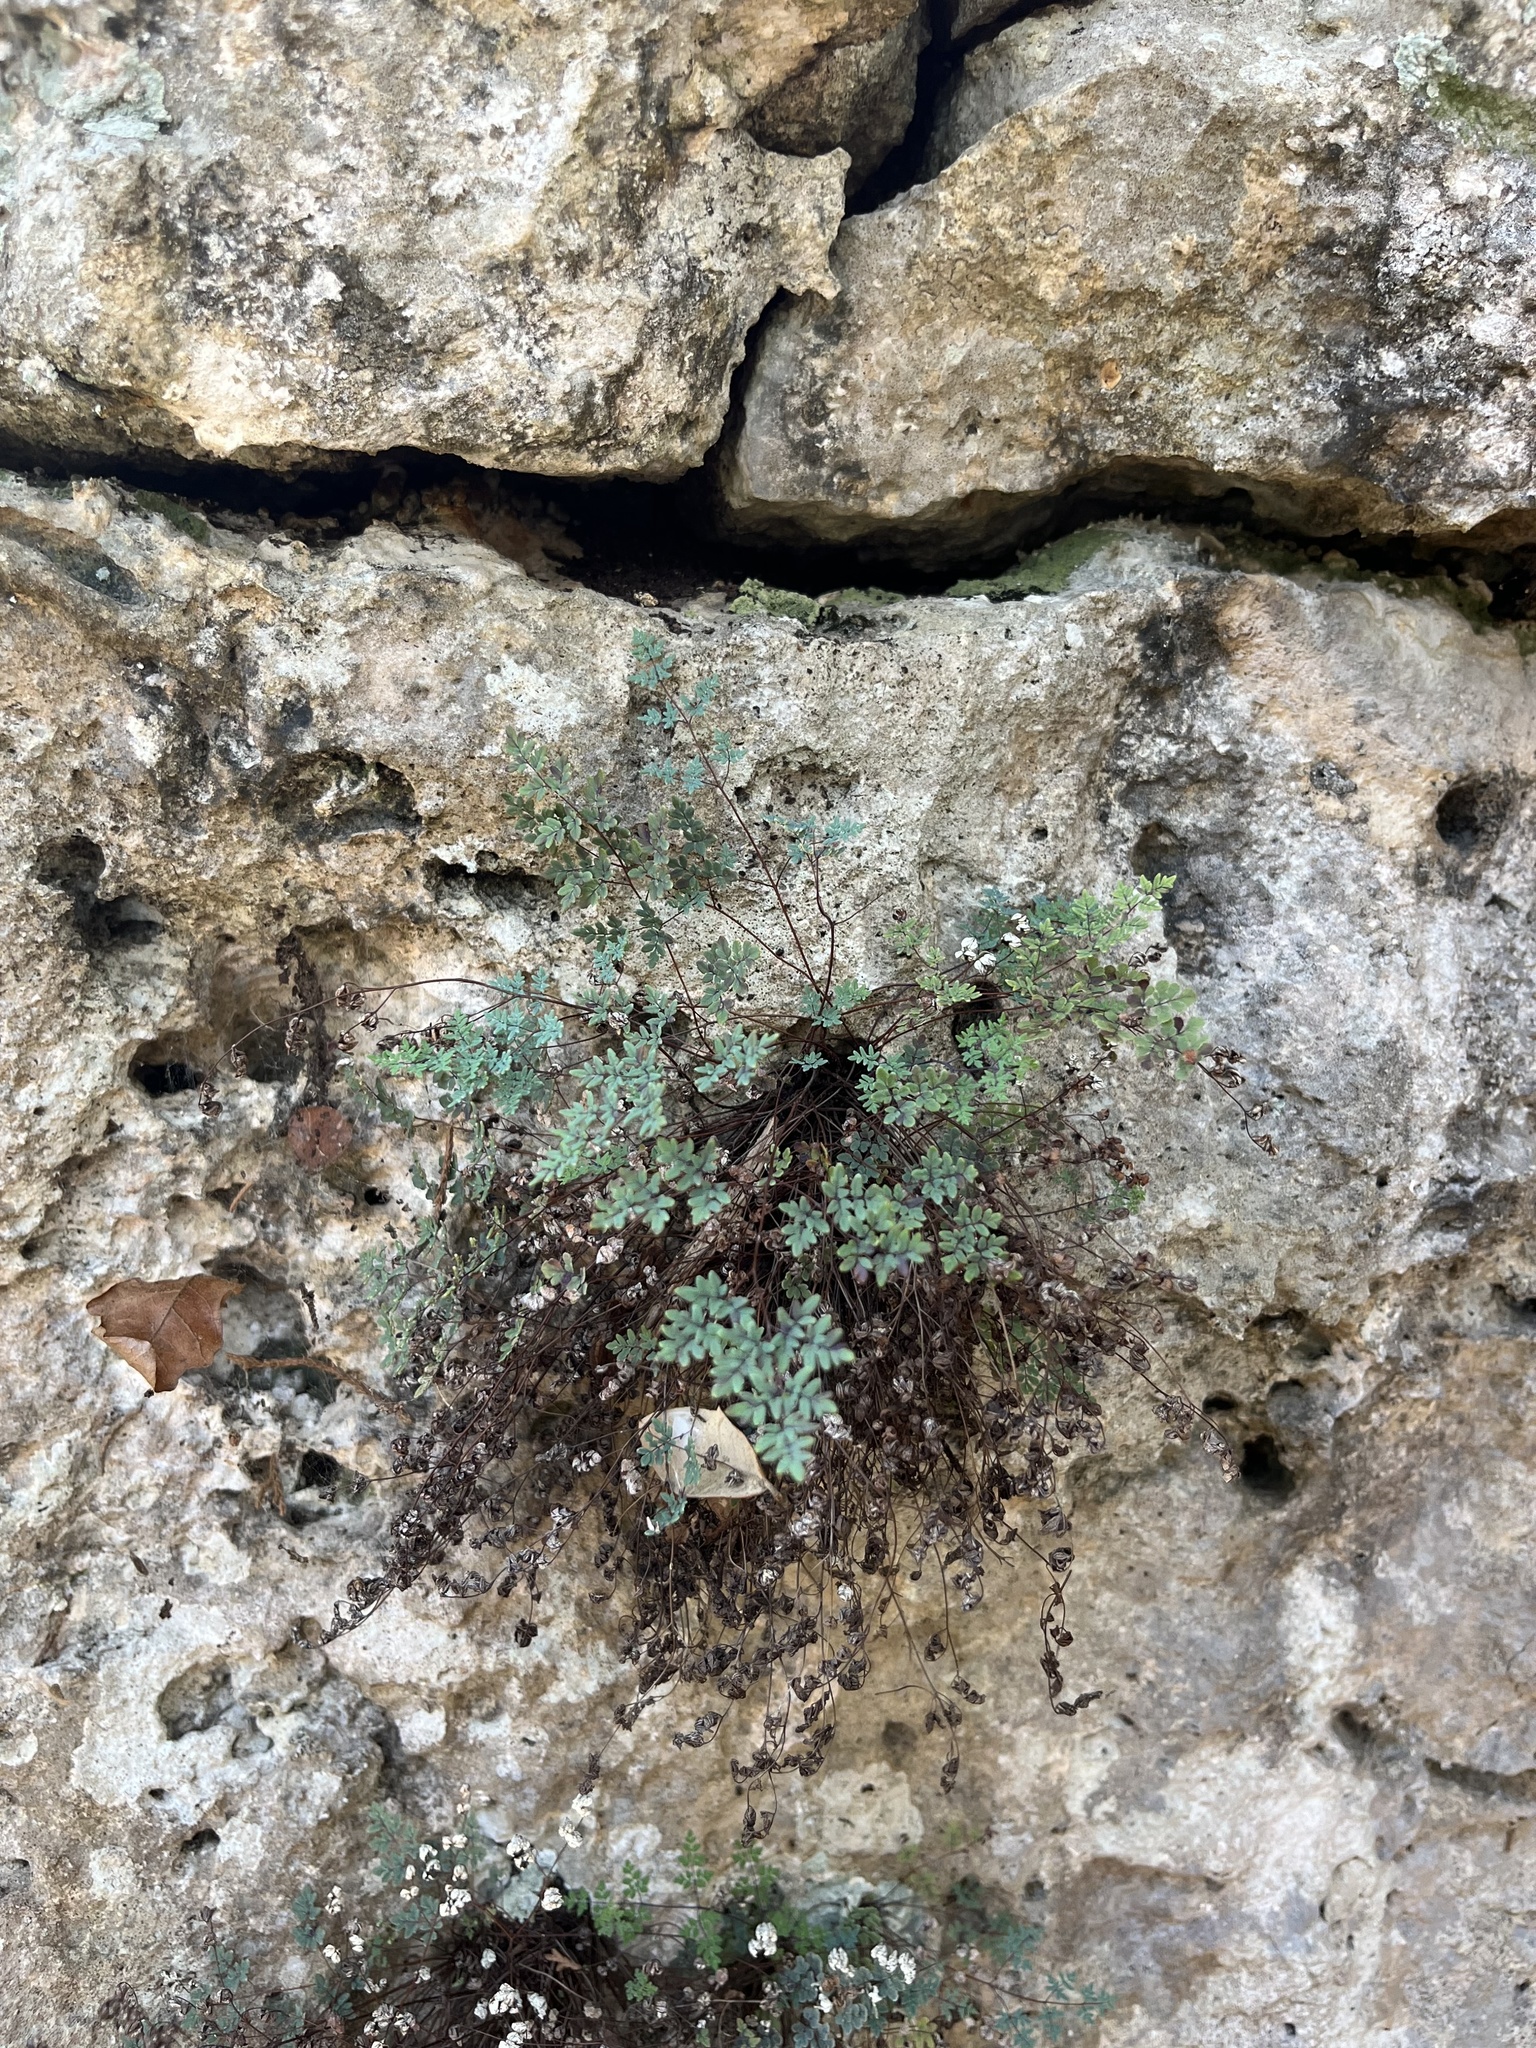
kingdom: Plantae
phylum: Tracheophyta
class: Polypodiopsida
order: Polypodiales
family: Pteridaceae
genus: Argyrochosma
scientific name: Argyrochosma dealbata
